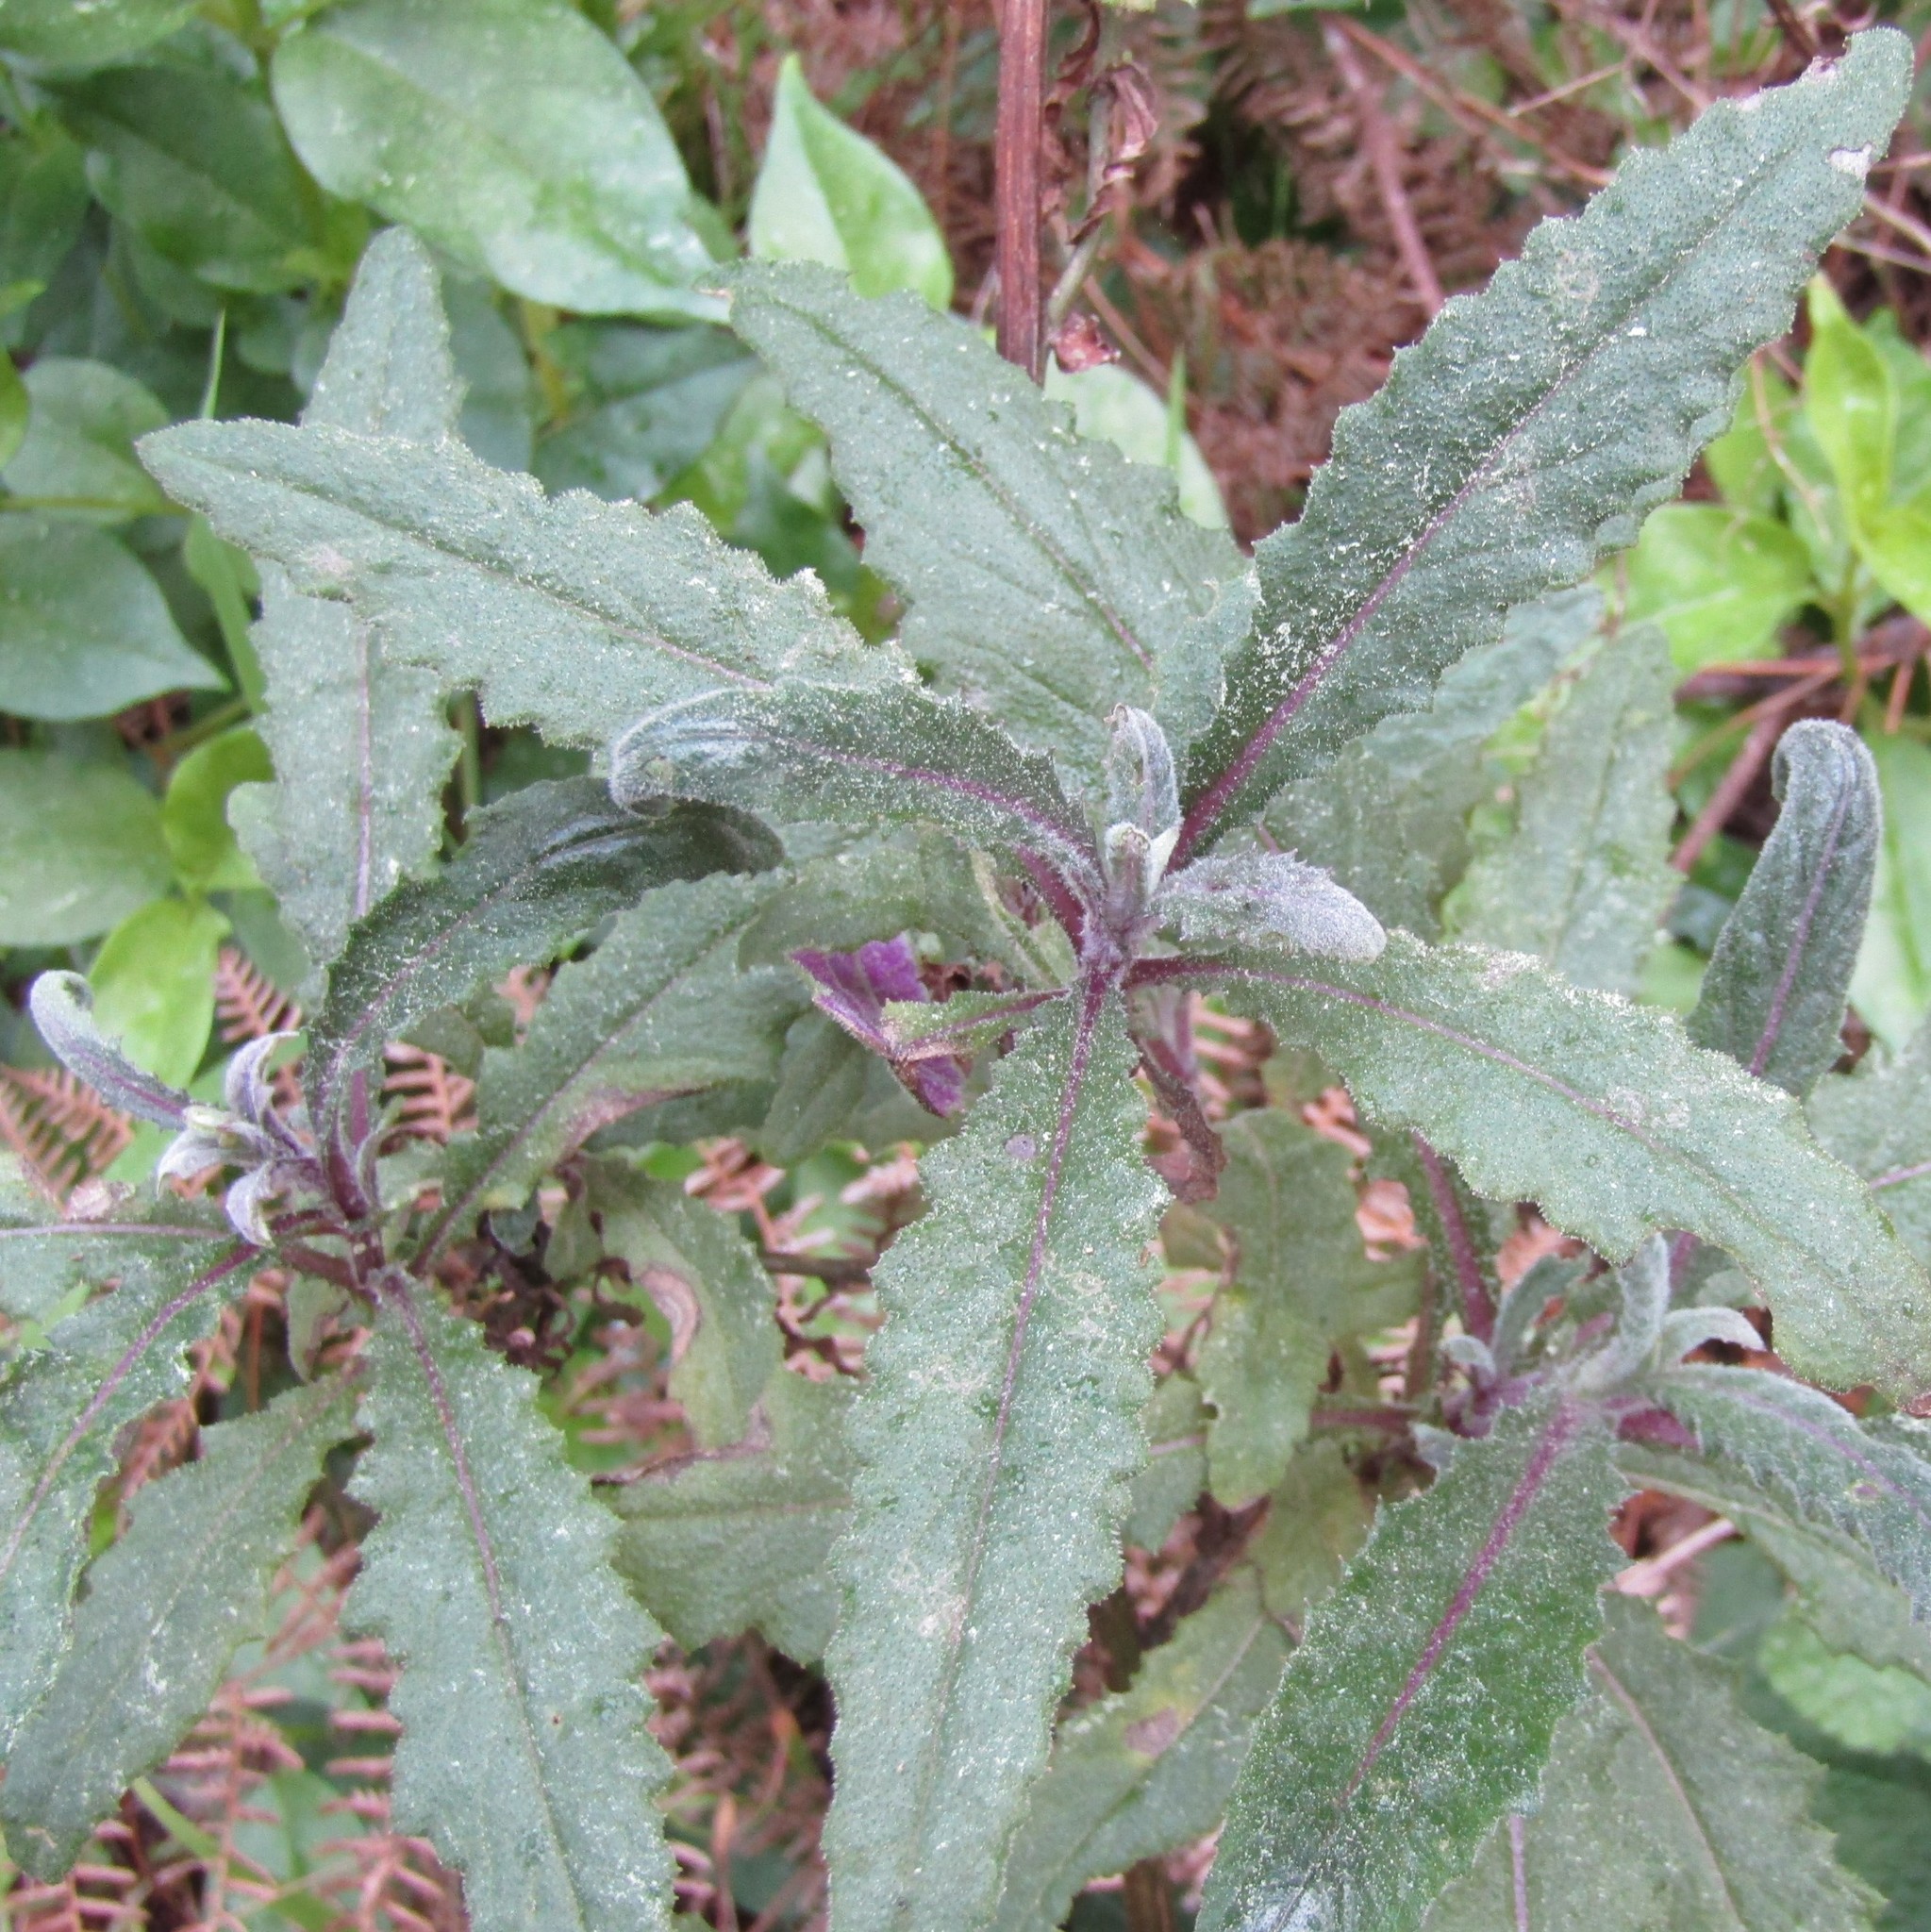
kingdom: Plantae
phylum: Tracheophyta
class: Magnoliopsida
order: Asterales
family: Asteraceae
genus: Senecio
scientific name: Senecio minimus
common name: Toothed fireweed
